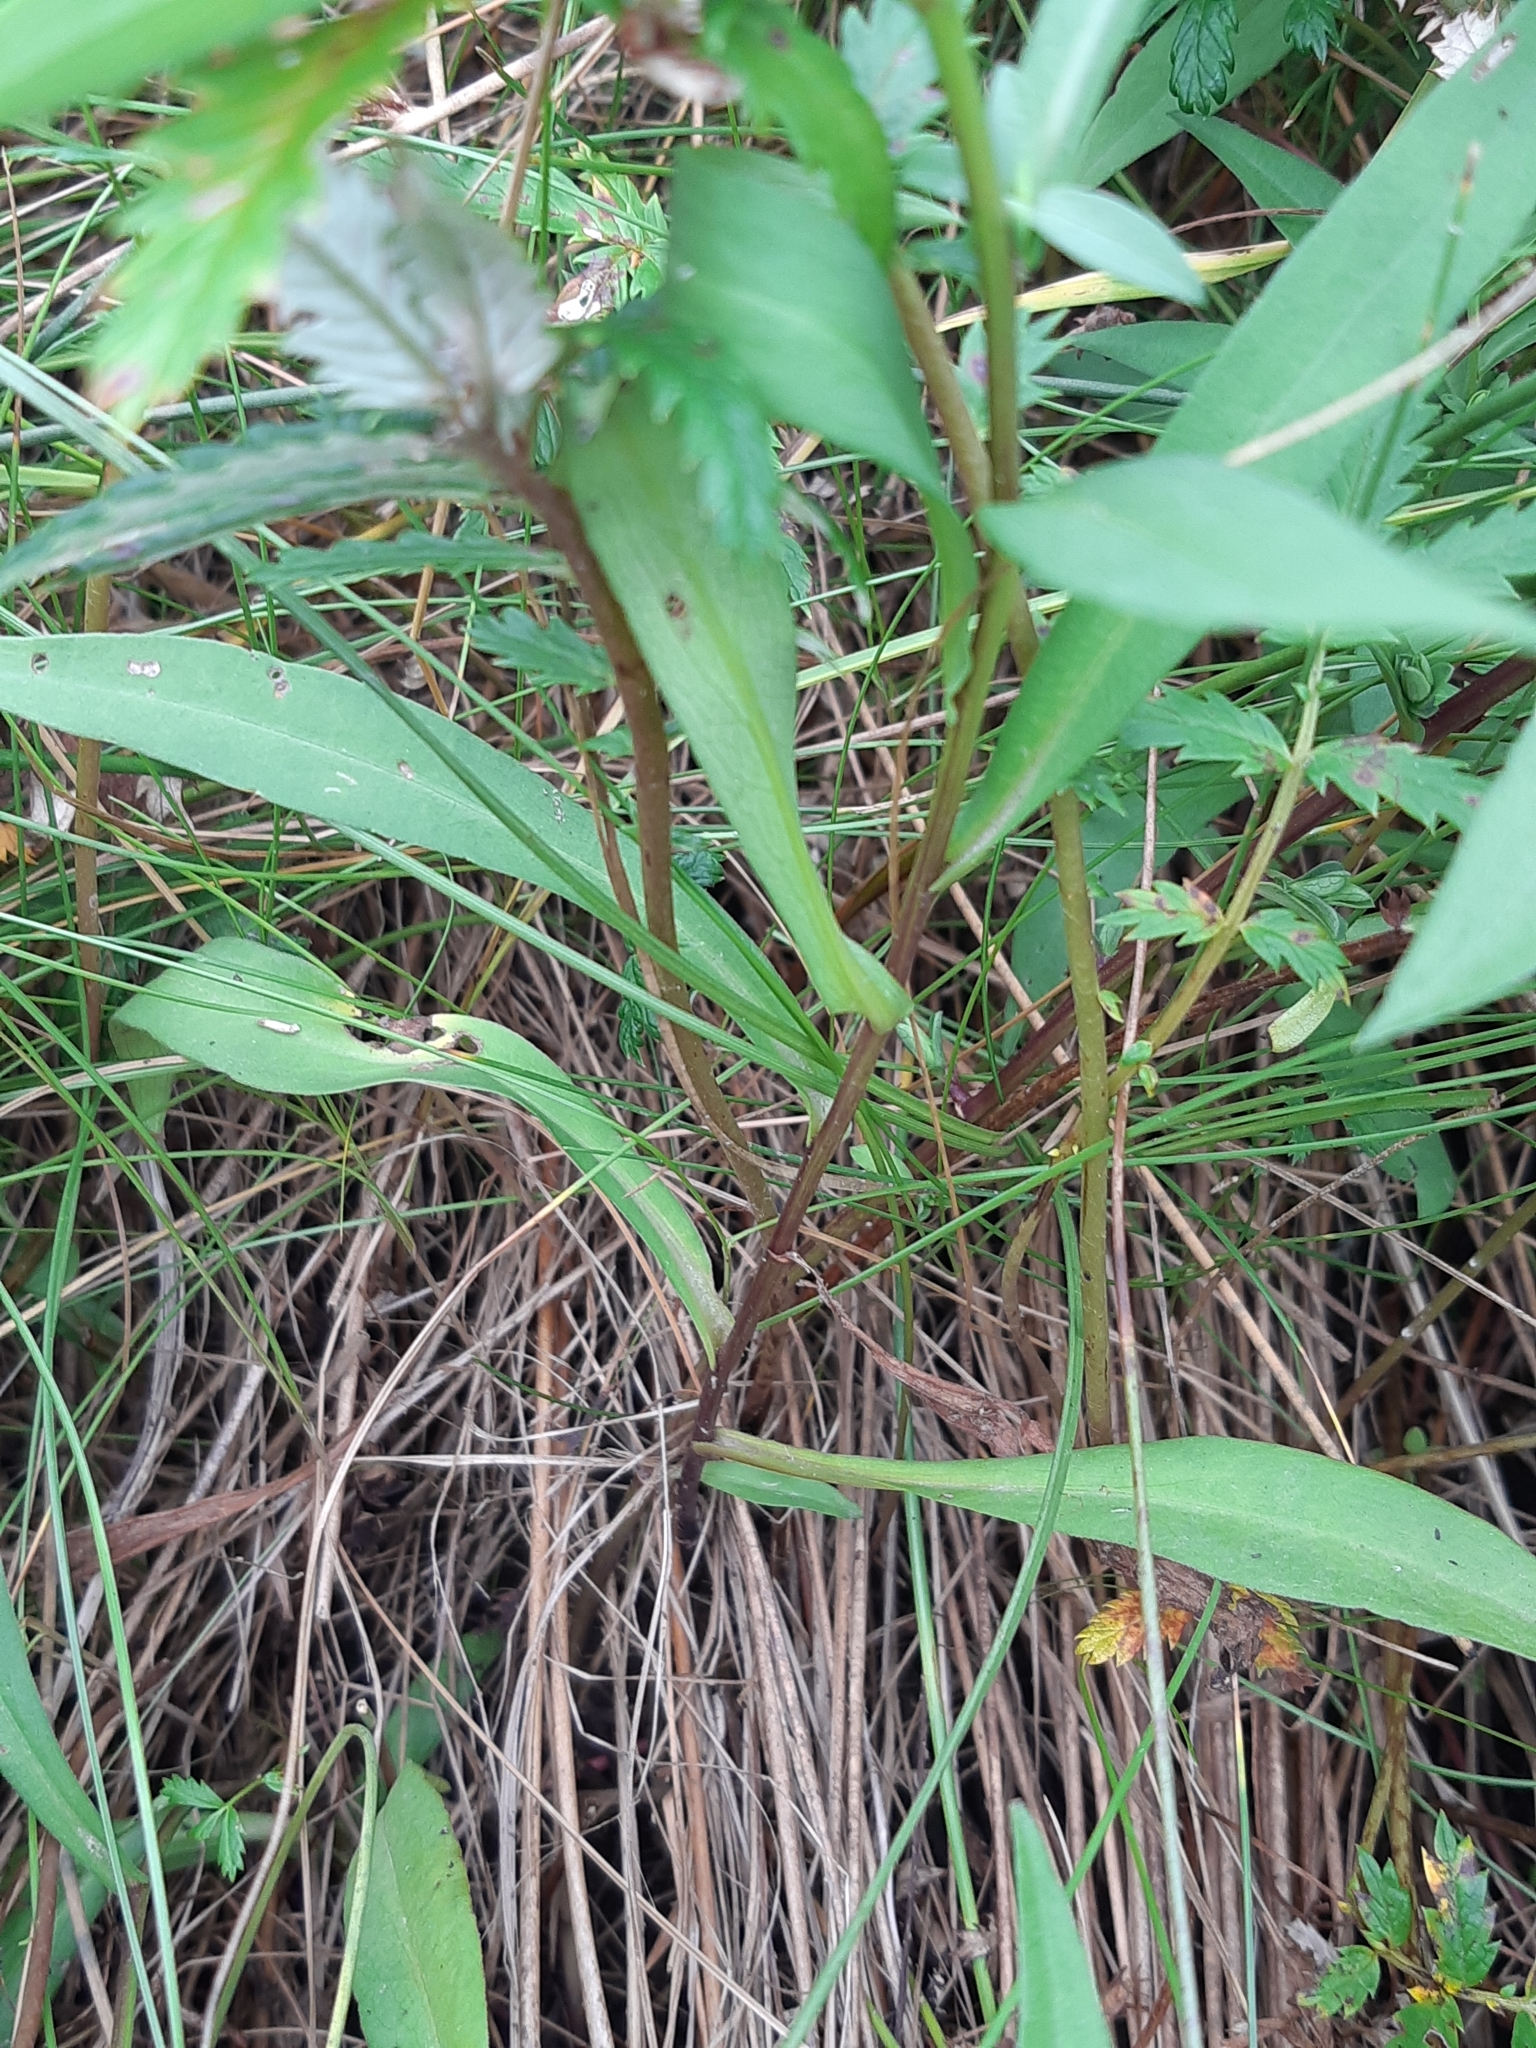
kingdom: Plantae
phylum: Tracheophyta
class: Magnoliopsida
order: Asterales
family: Asteraceae
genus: Symphyotrichum
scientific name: Symphyotrichum novi-belgii
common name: Michaelmas daisy
